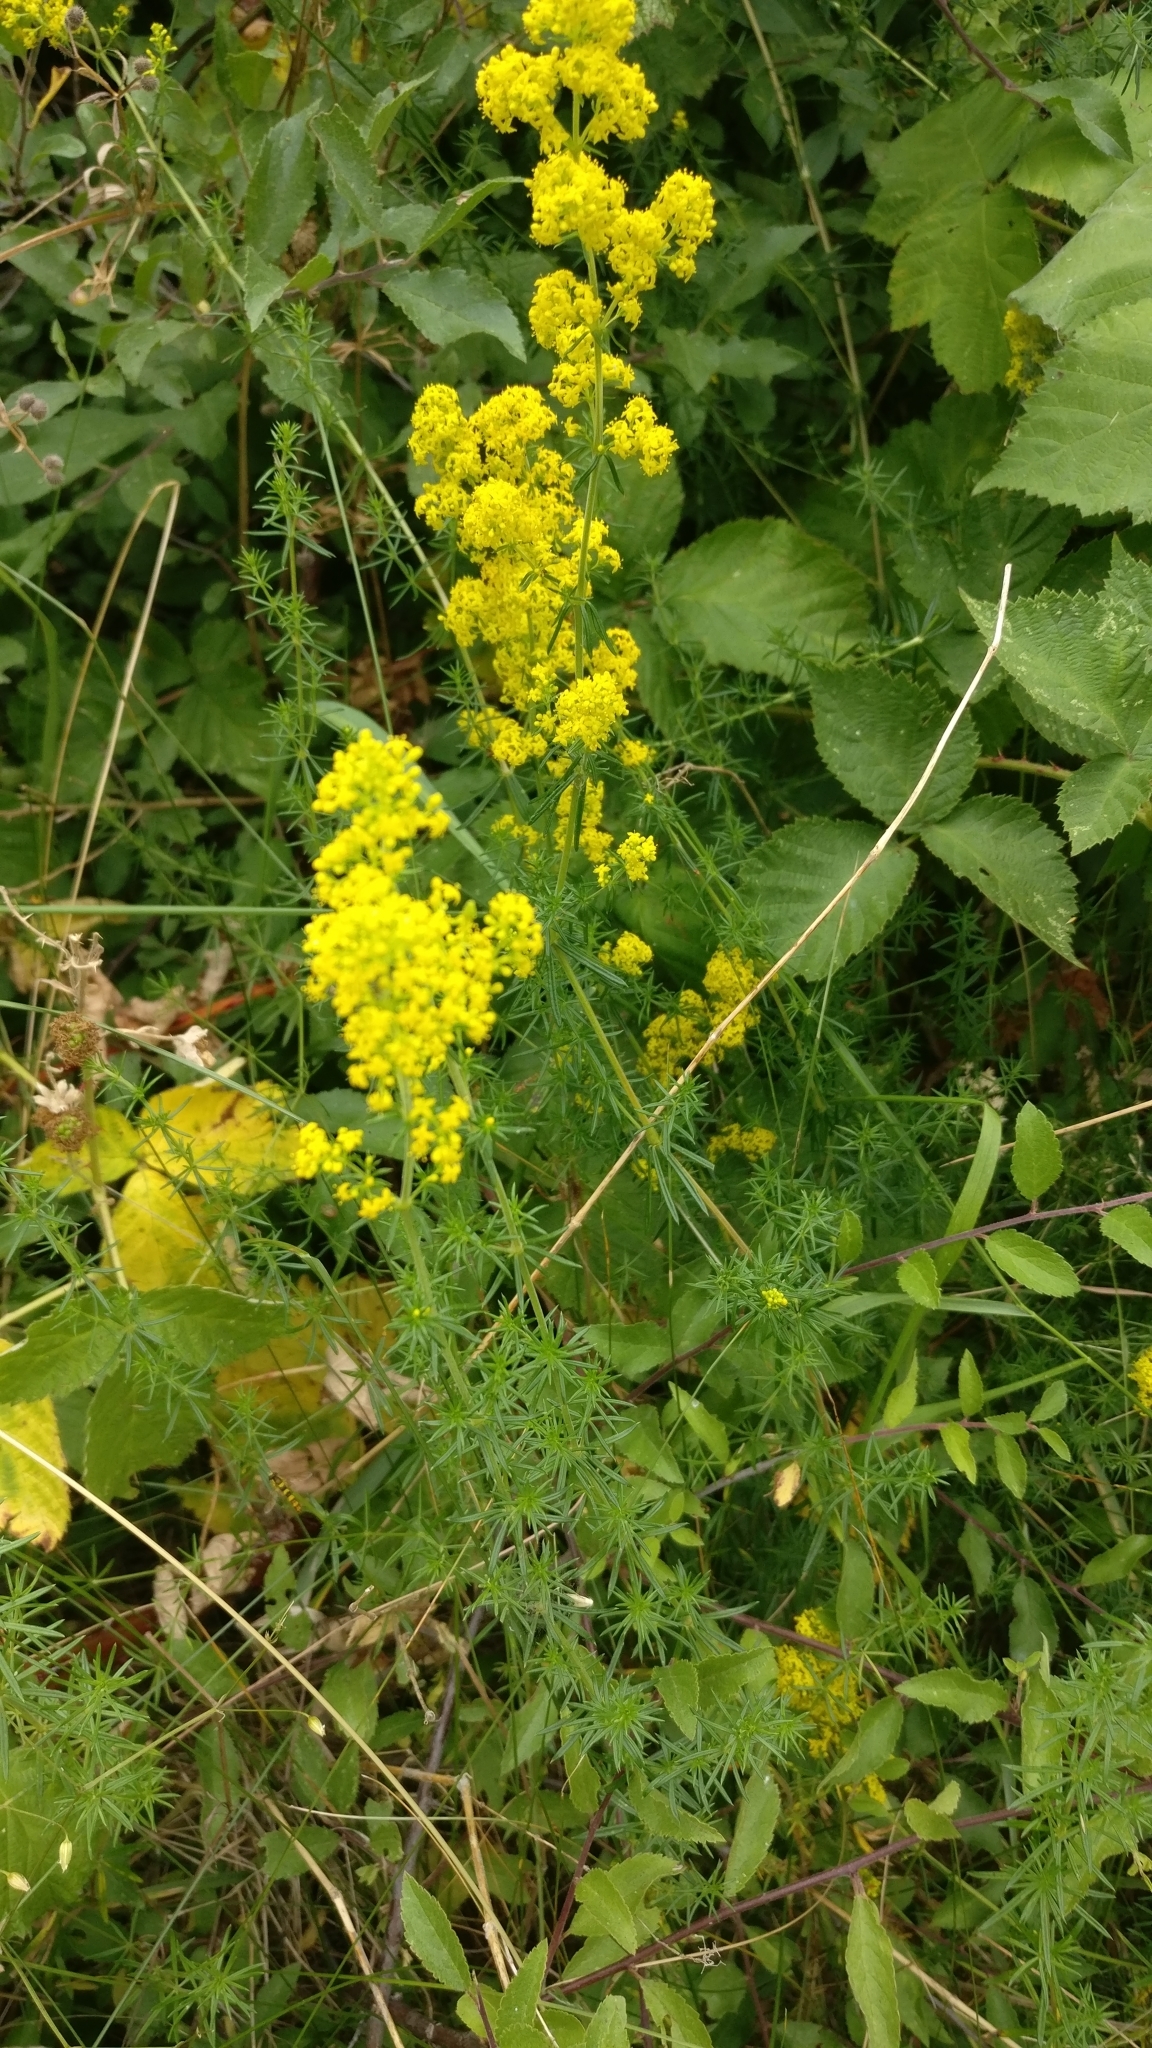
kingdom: Plantae
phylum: Tracheophyta
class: Magnoliopsida
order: Gentianales
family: Rubiaceae
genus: Galium
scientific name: Galium verum
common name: Lady's bedstraw
